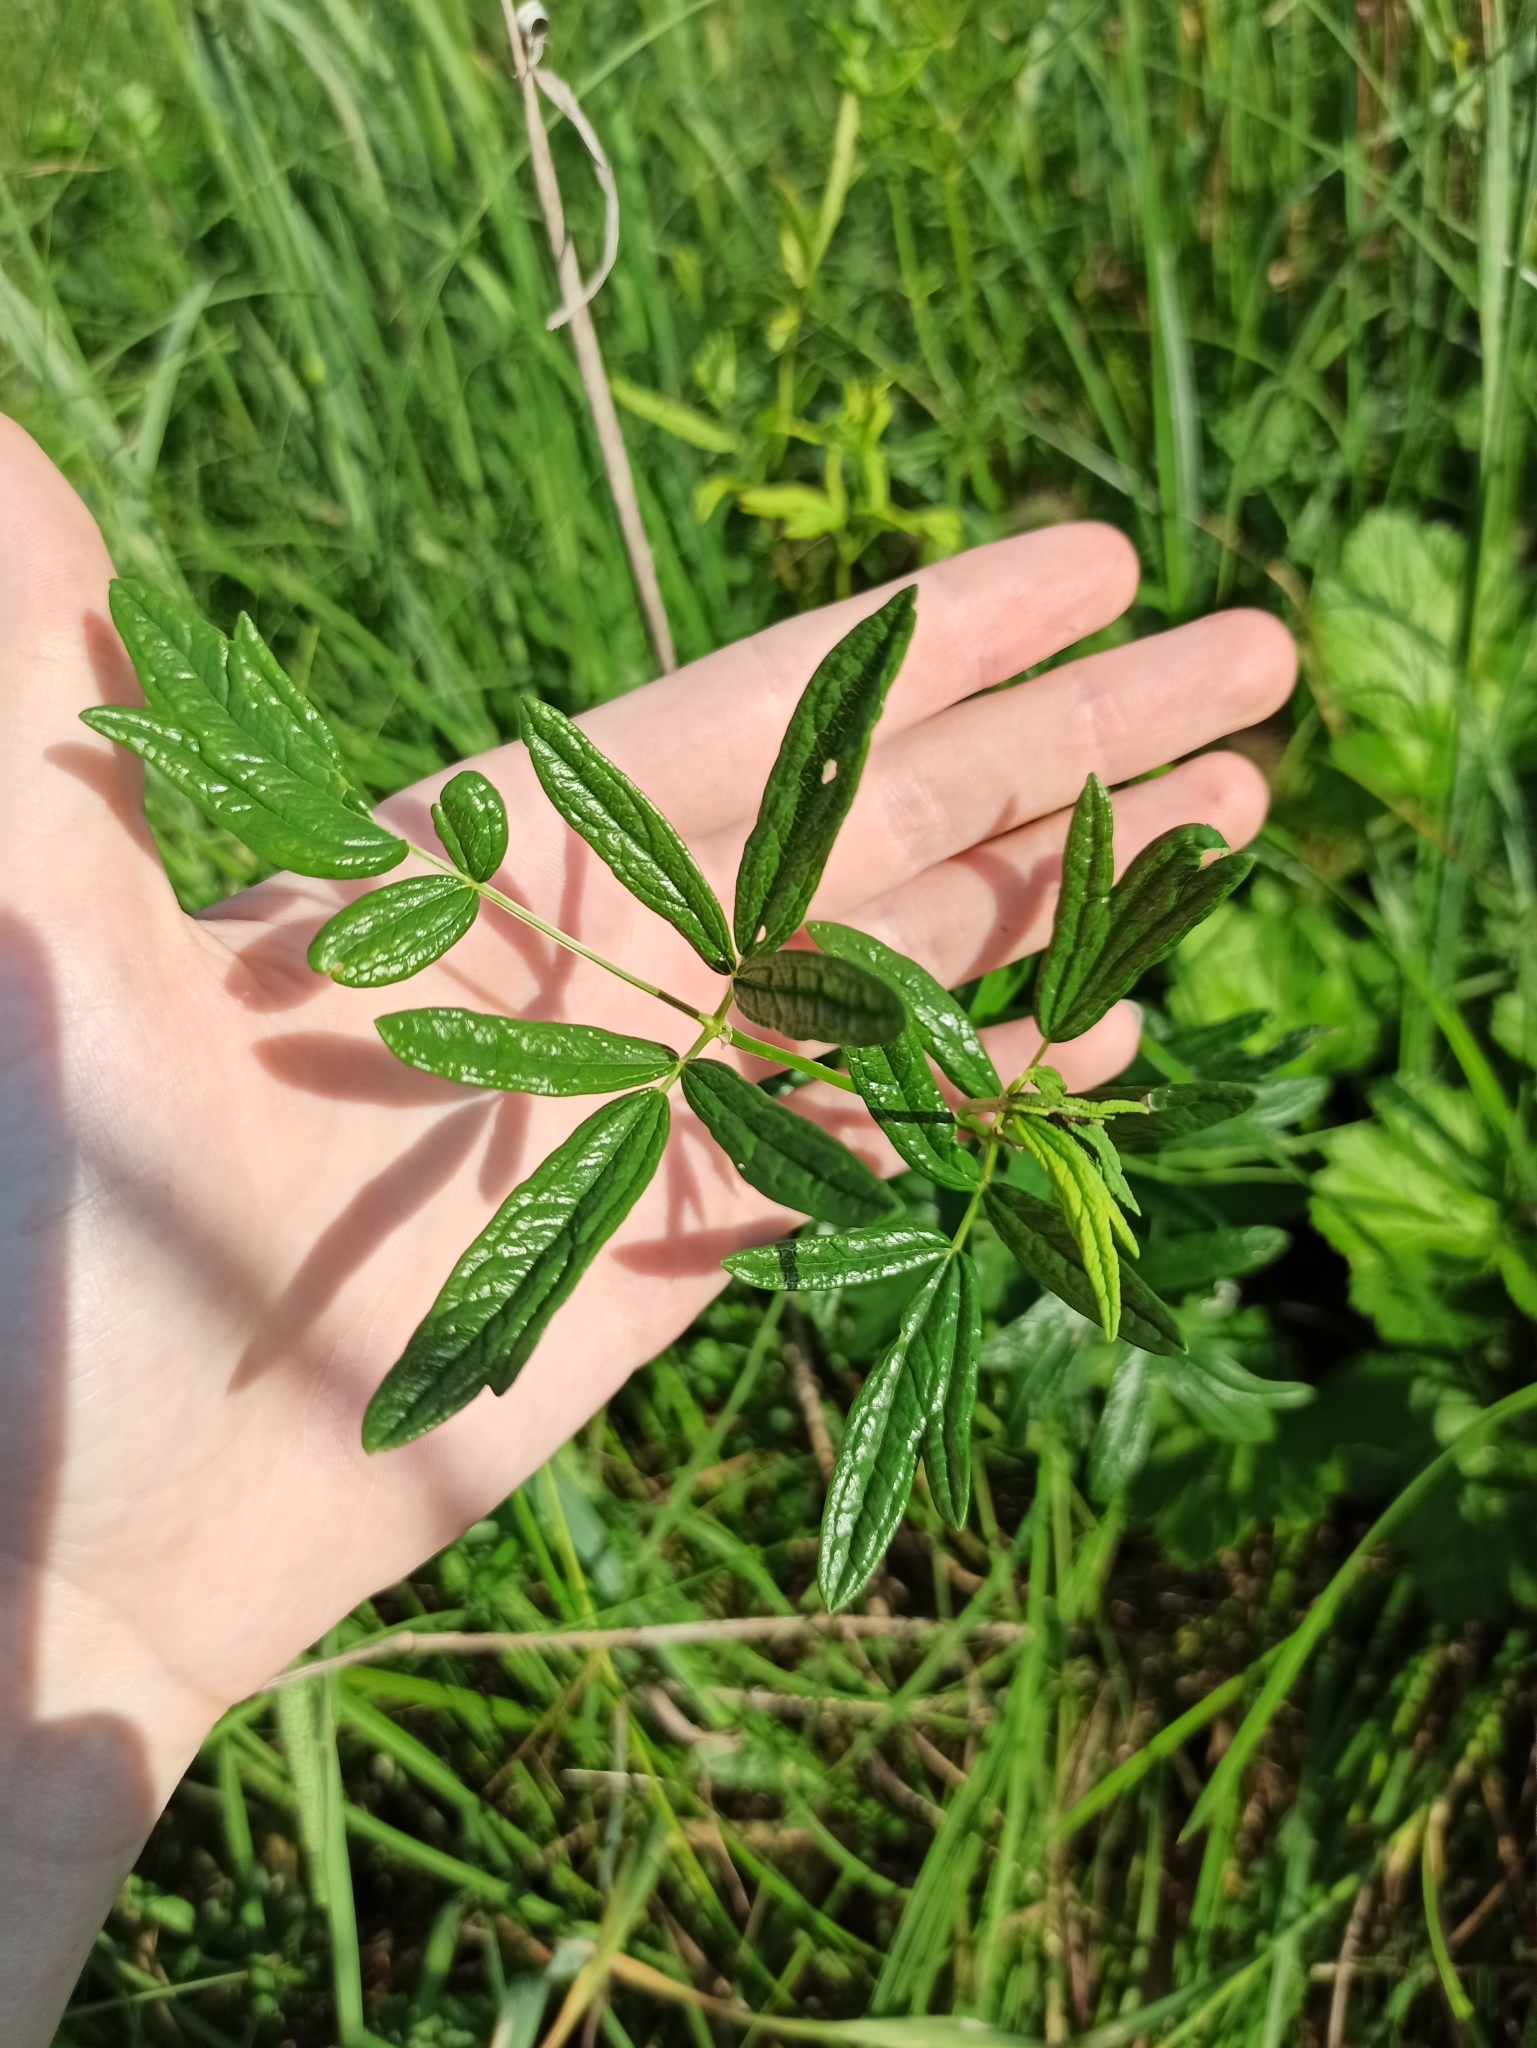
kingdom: Plantae
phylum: Tracheophyta
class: Magnoliopsida
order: Ranunculales
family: Ranunculaceae
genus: Thalictrum
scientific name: Thalictrum lucidum
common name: Shining meadow-rue
